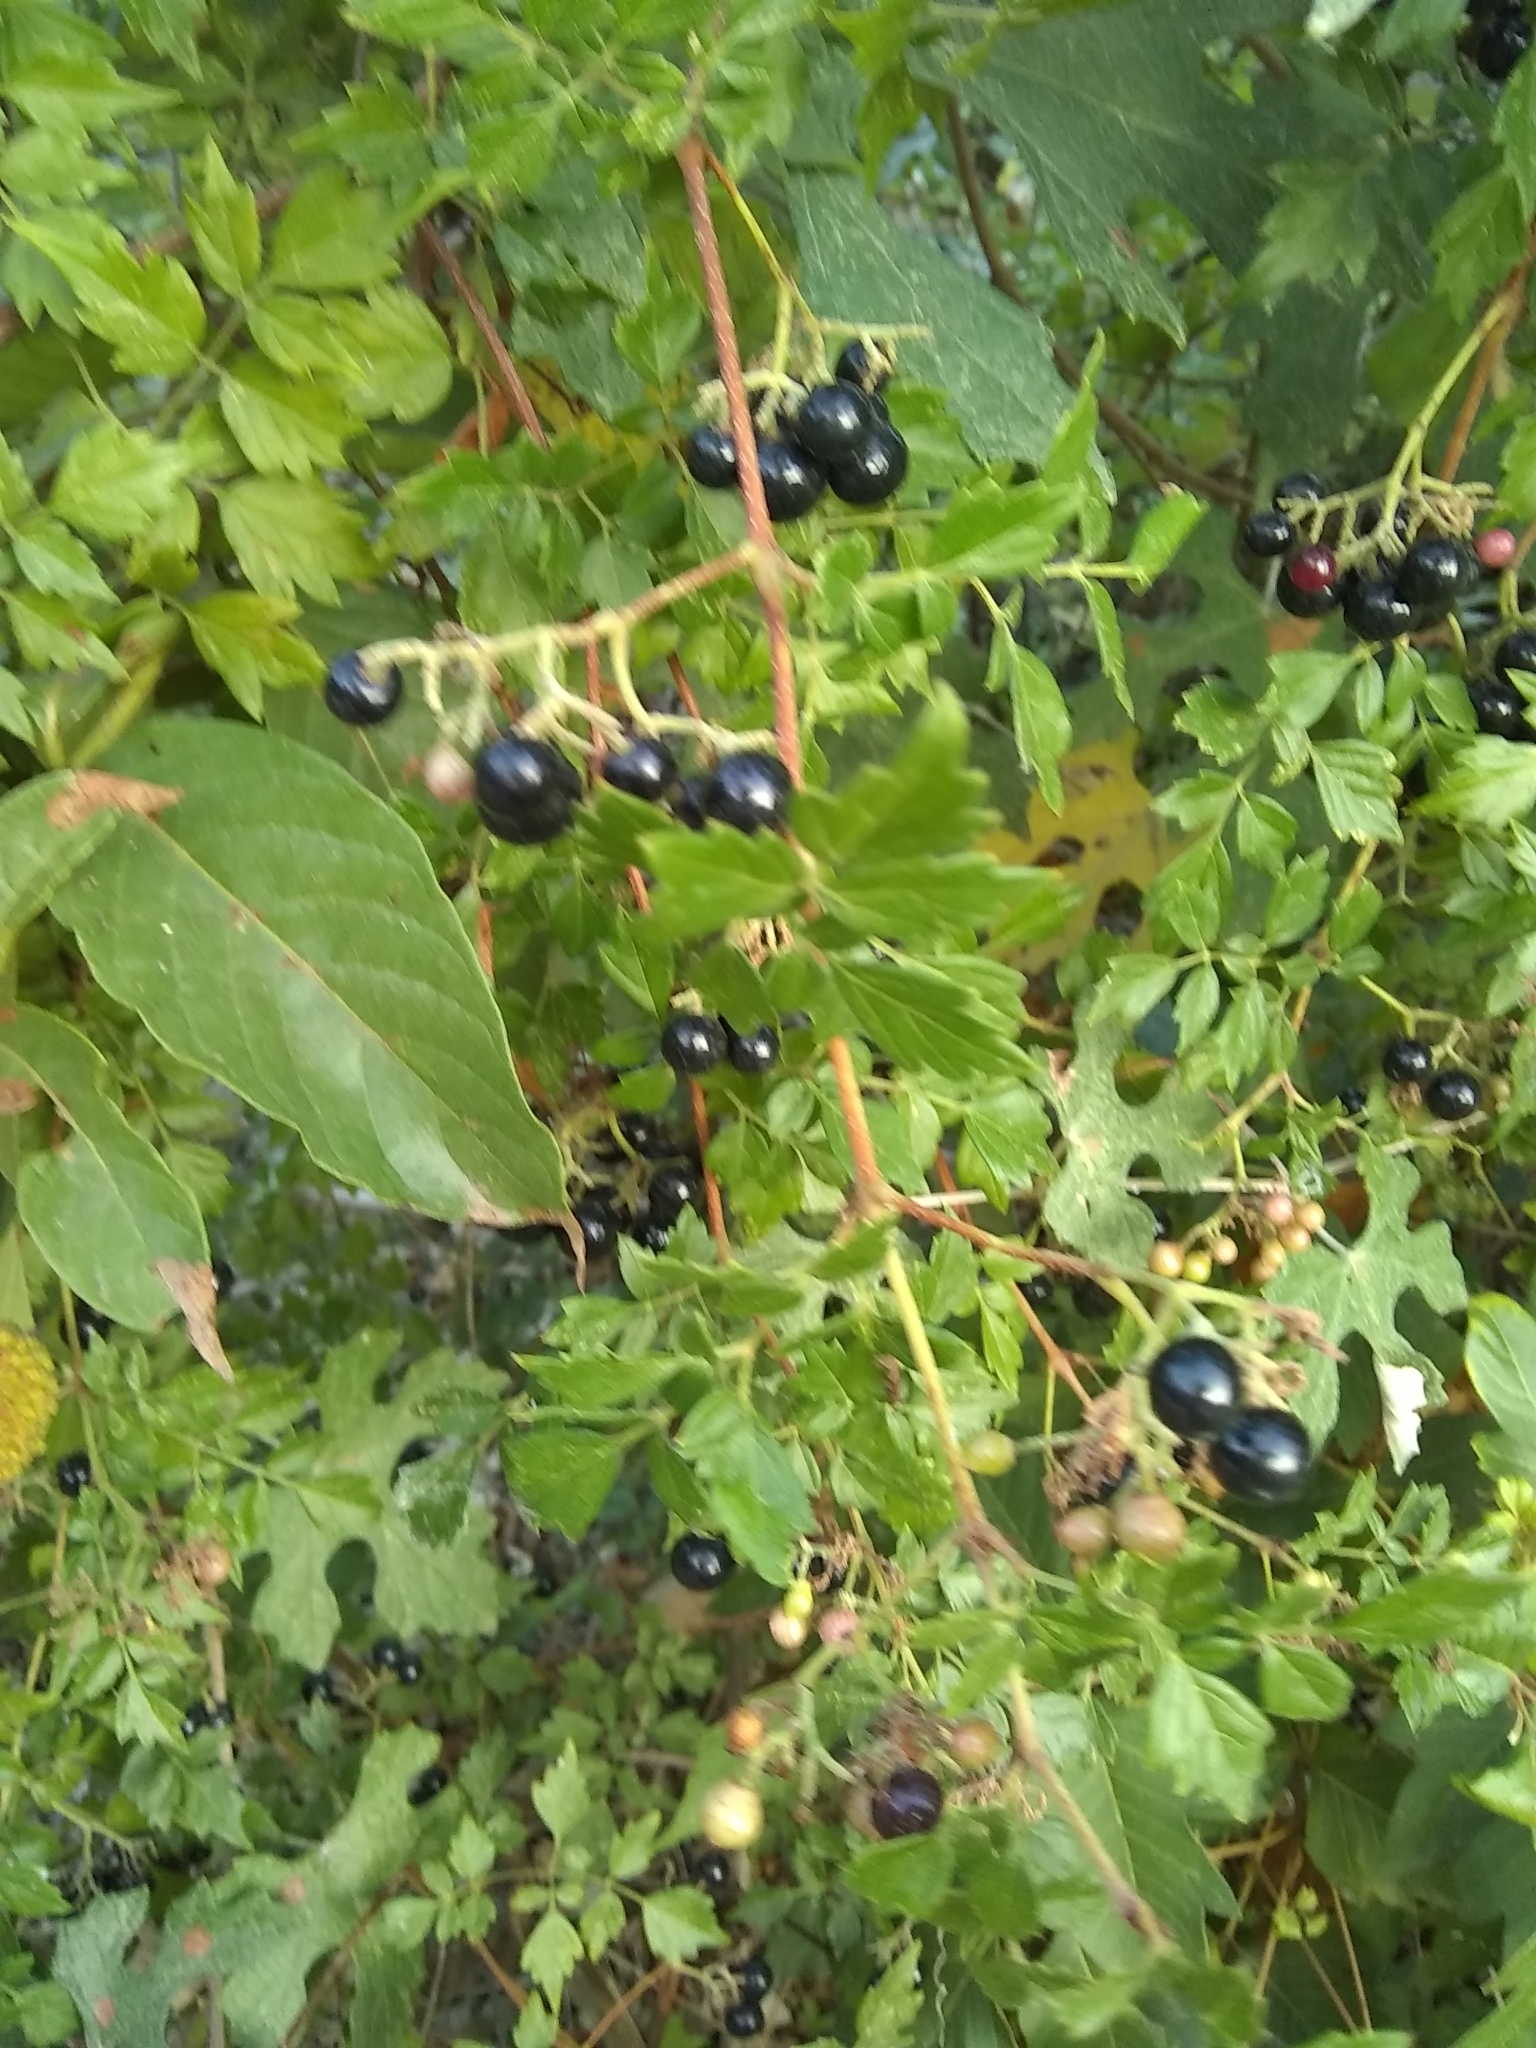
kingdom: Plantae
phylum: Tracheophyta
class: Magnoliopsida
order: Vitales
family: Vitaceae
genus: Nekemias
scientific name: Nekemias arborea
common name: Peppervine
